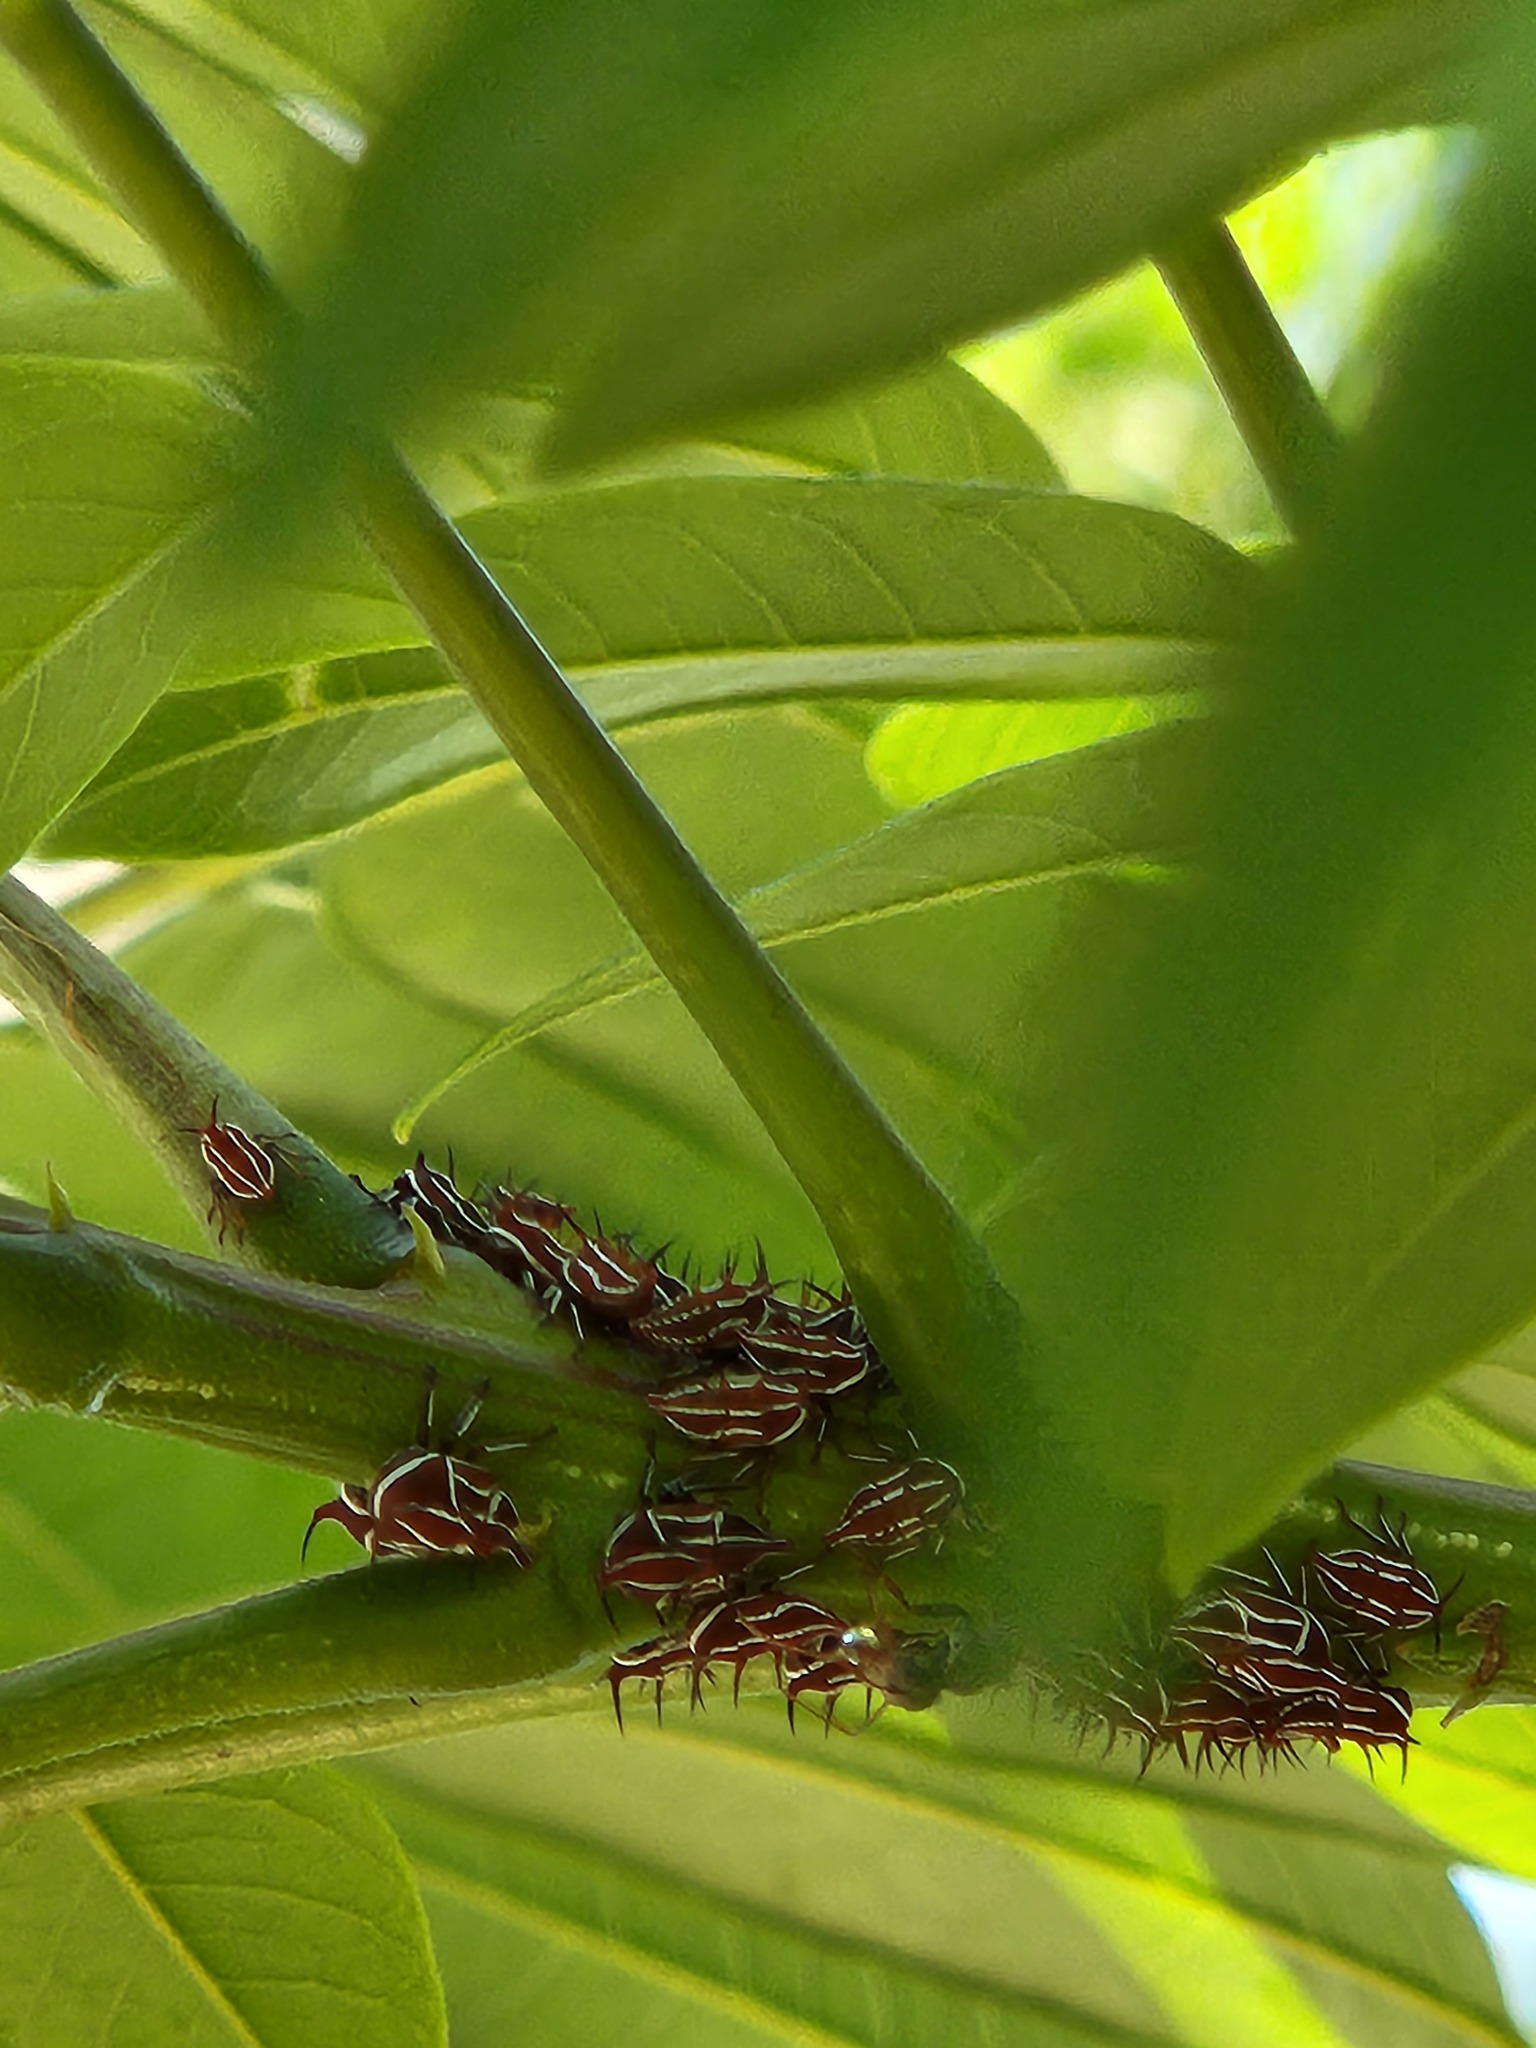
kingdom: Animalia
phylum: Arthropoda
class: Insecta
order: Hemiptera
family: Membracidae
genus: Guayaquila
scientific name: Guayaquila xiphias
